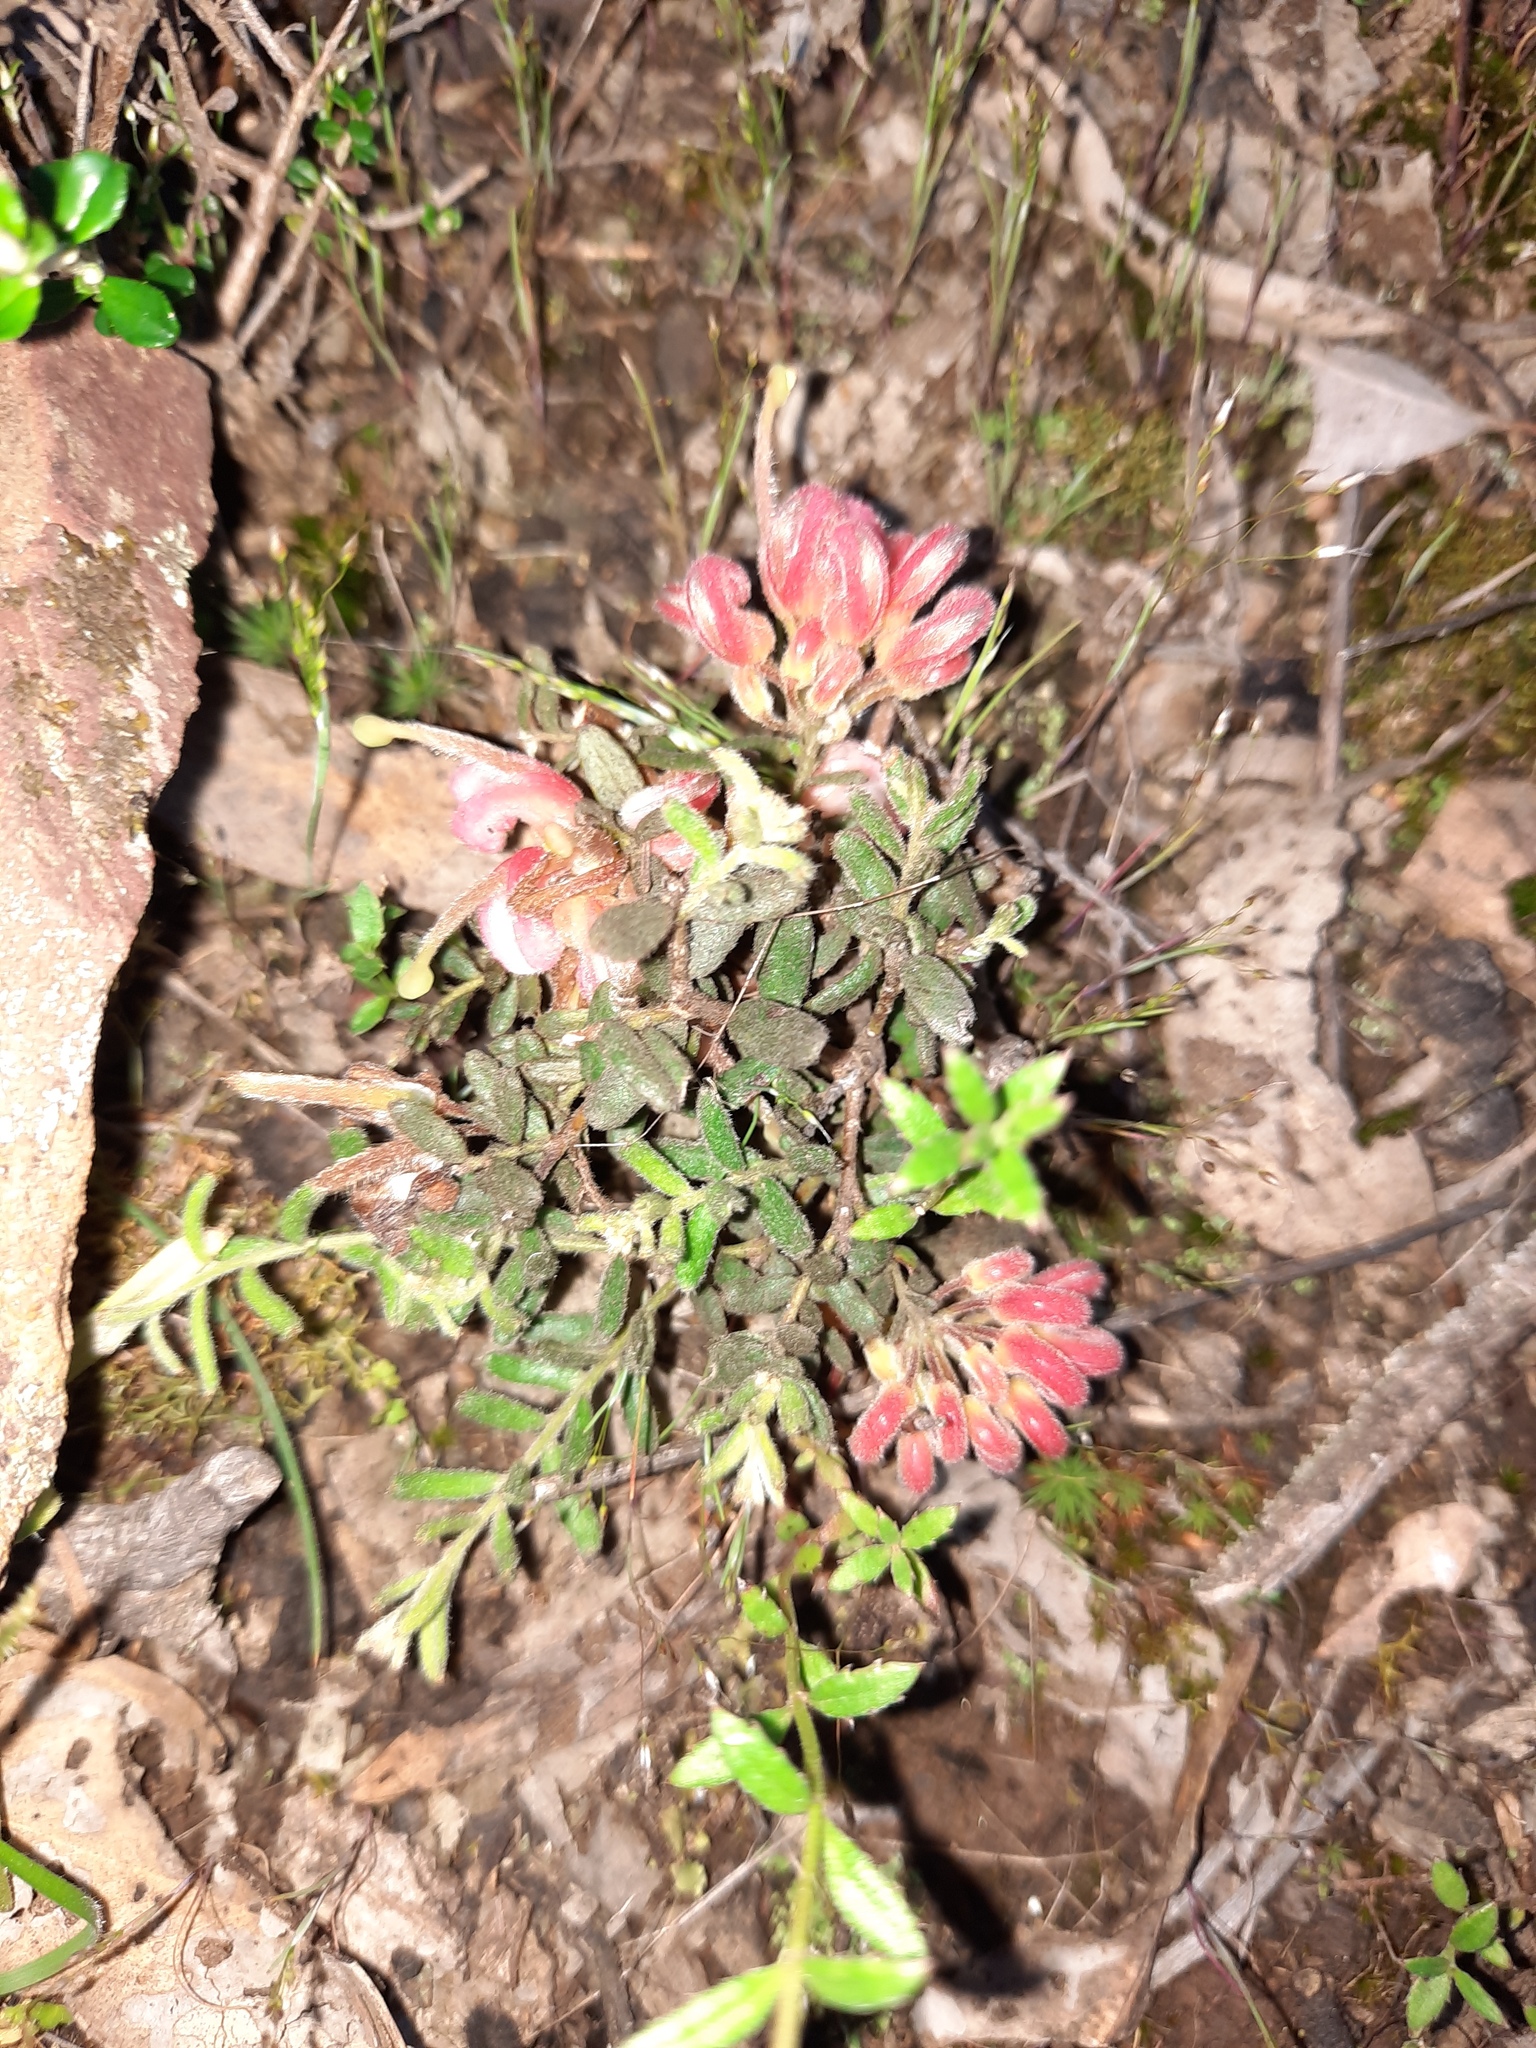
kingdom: Plantae
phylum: Tracheophyta
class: Magnoliopsida
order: Proteales
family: Proteaceae
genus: Grevillea
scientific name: Grevillea alpina
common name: Catclaws grevillea
